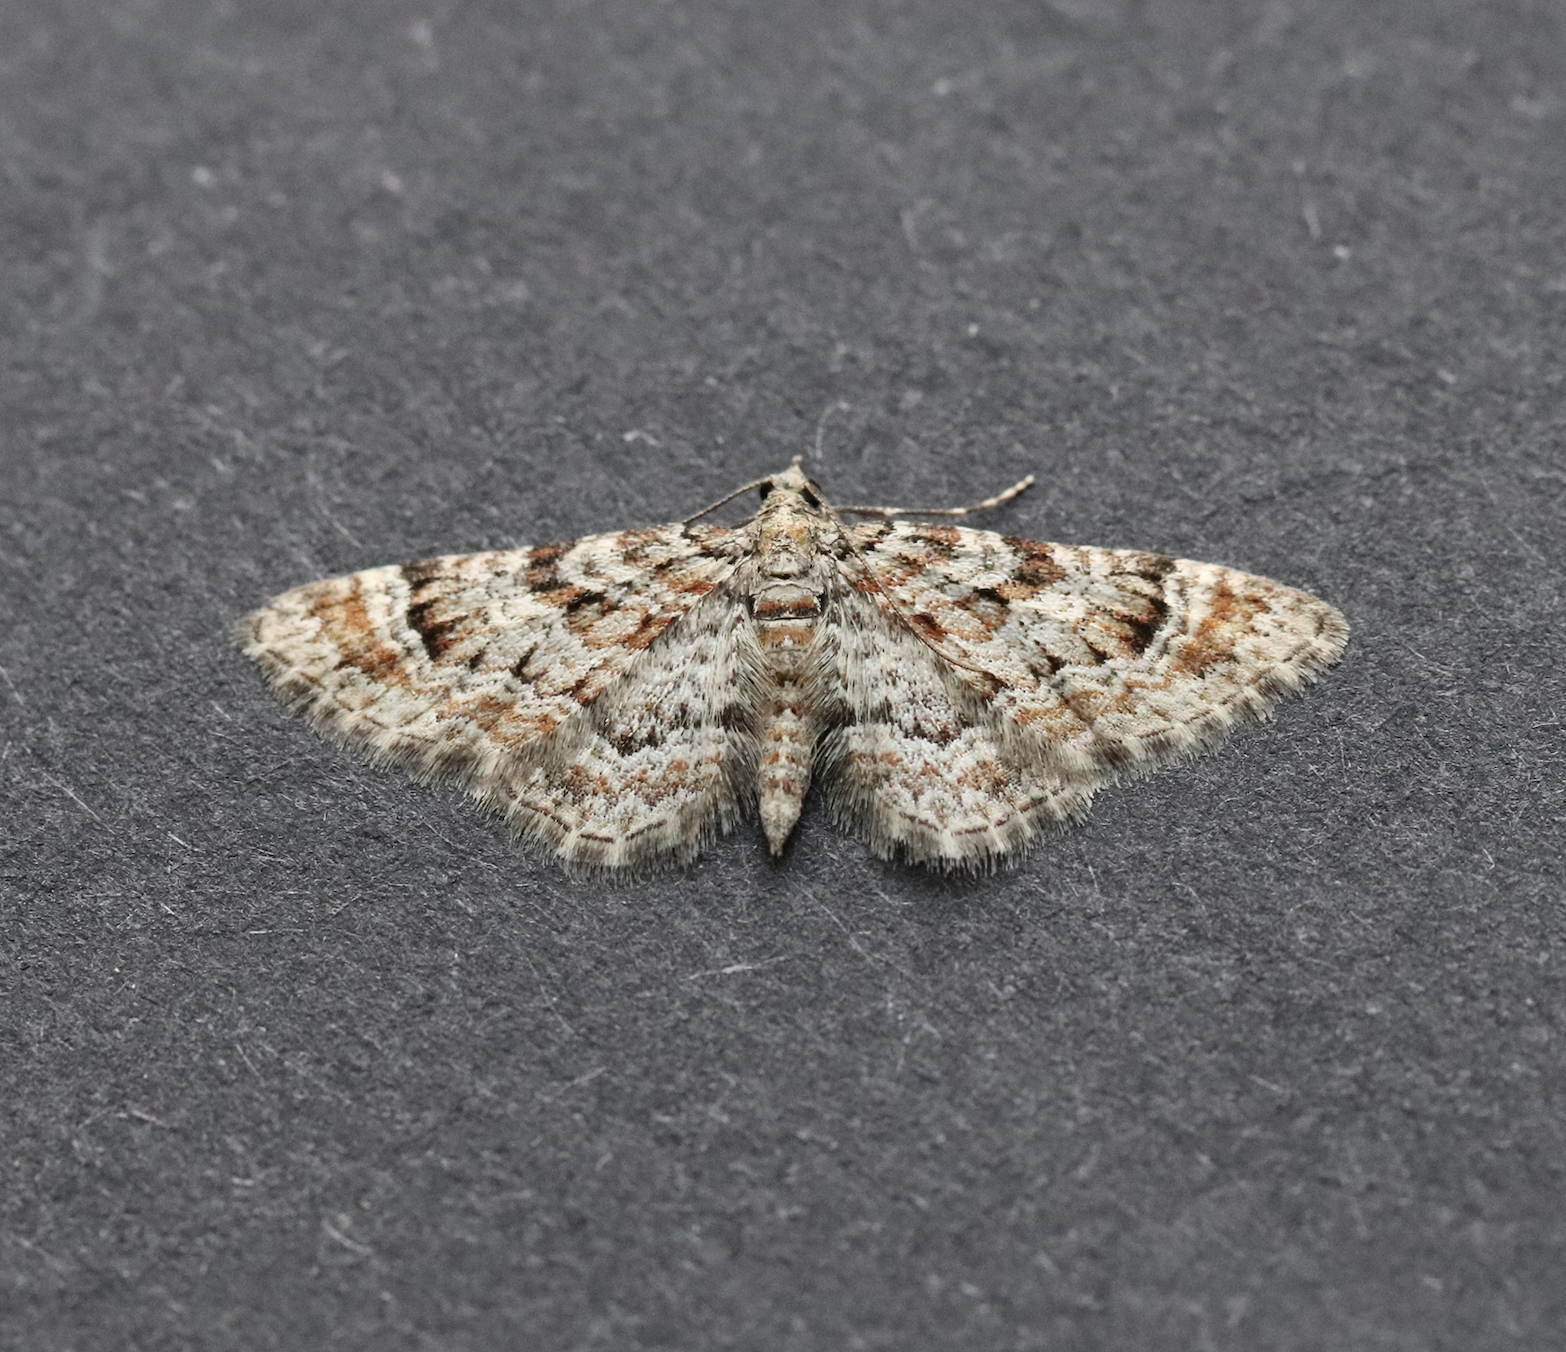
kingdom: Animalia
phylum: Arthropoda
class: Insecta
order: Lepidoptera
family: Geometridae
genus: Gymnoscelis
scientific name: Gymnoscelis rufifasciata
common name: Double-striped pug
